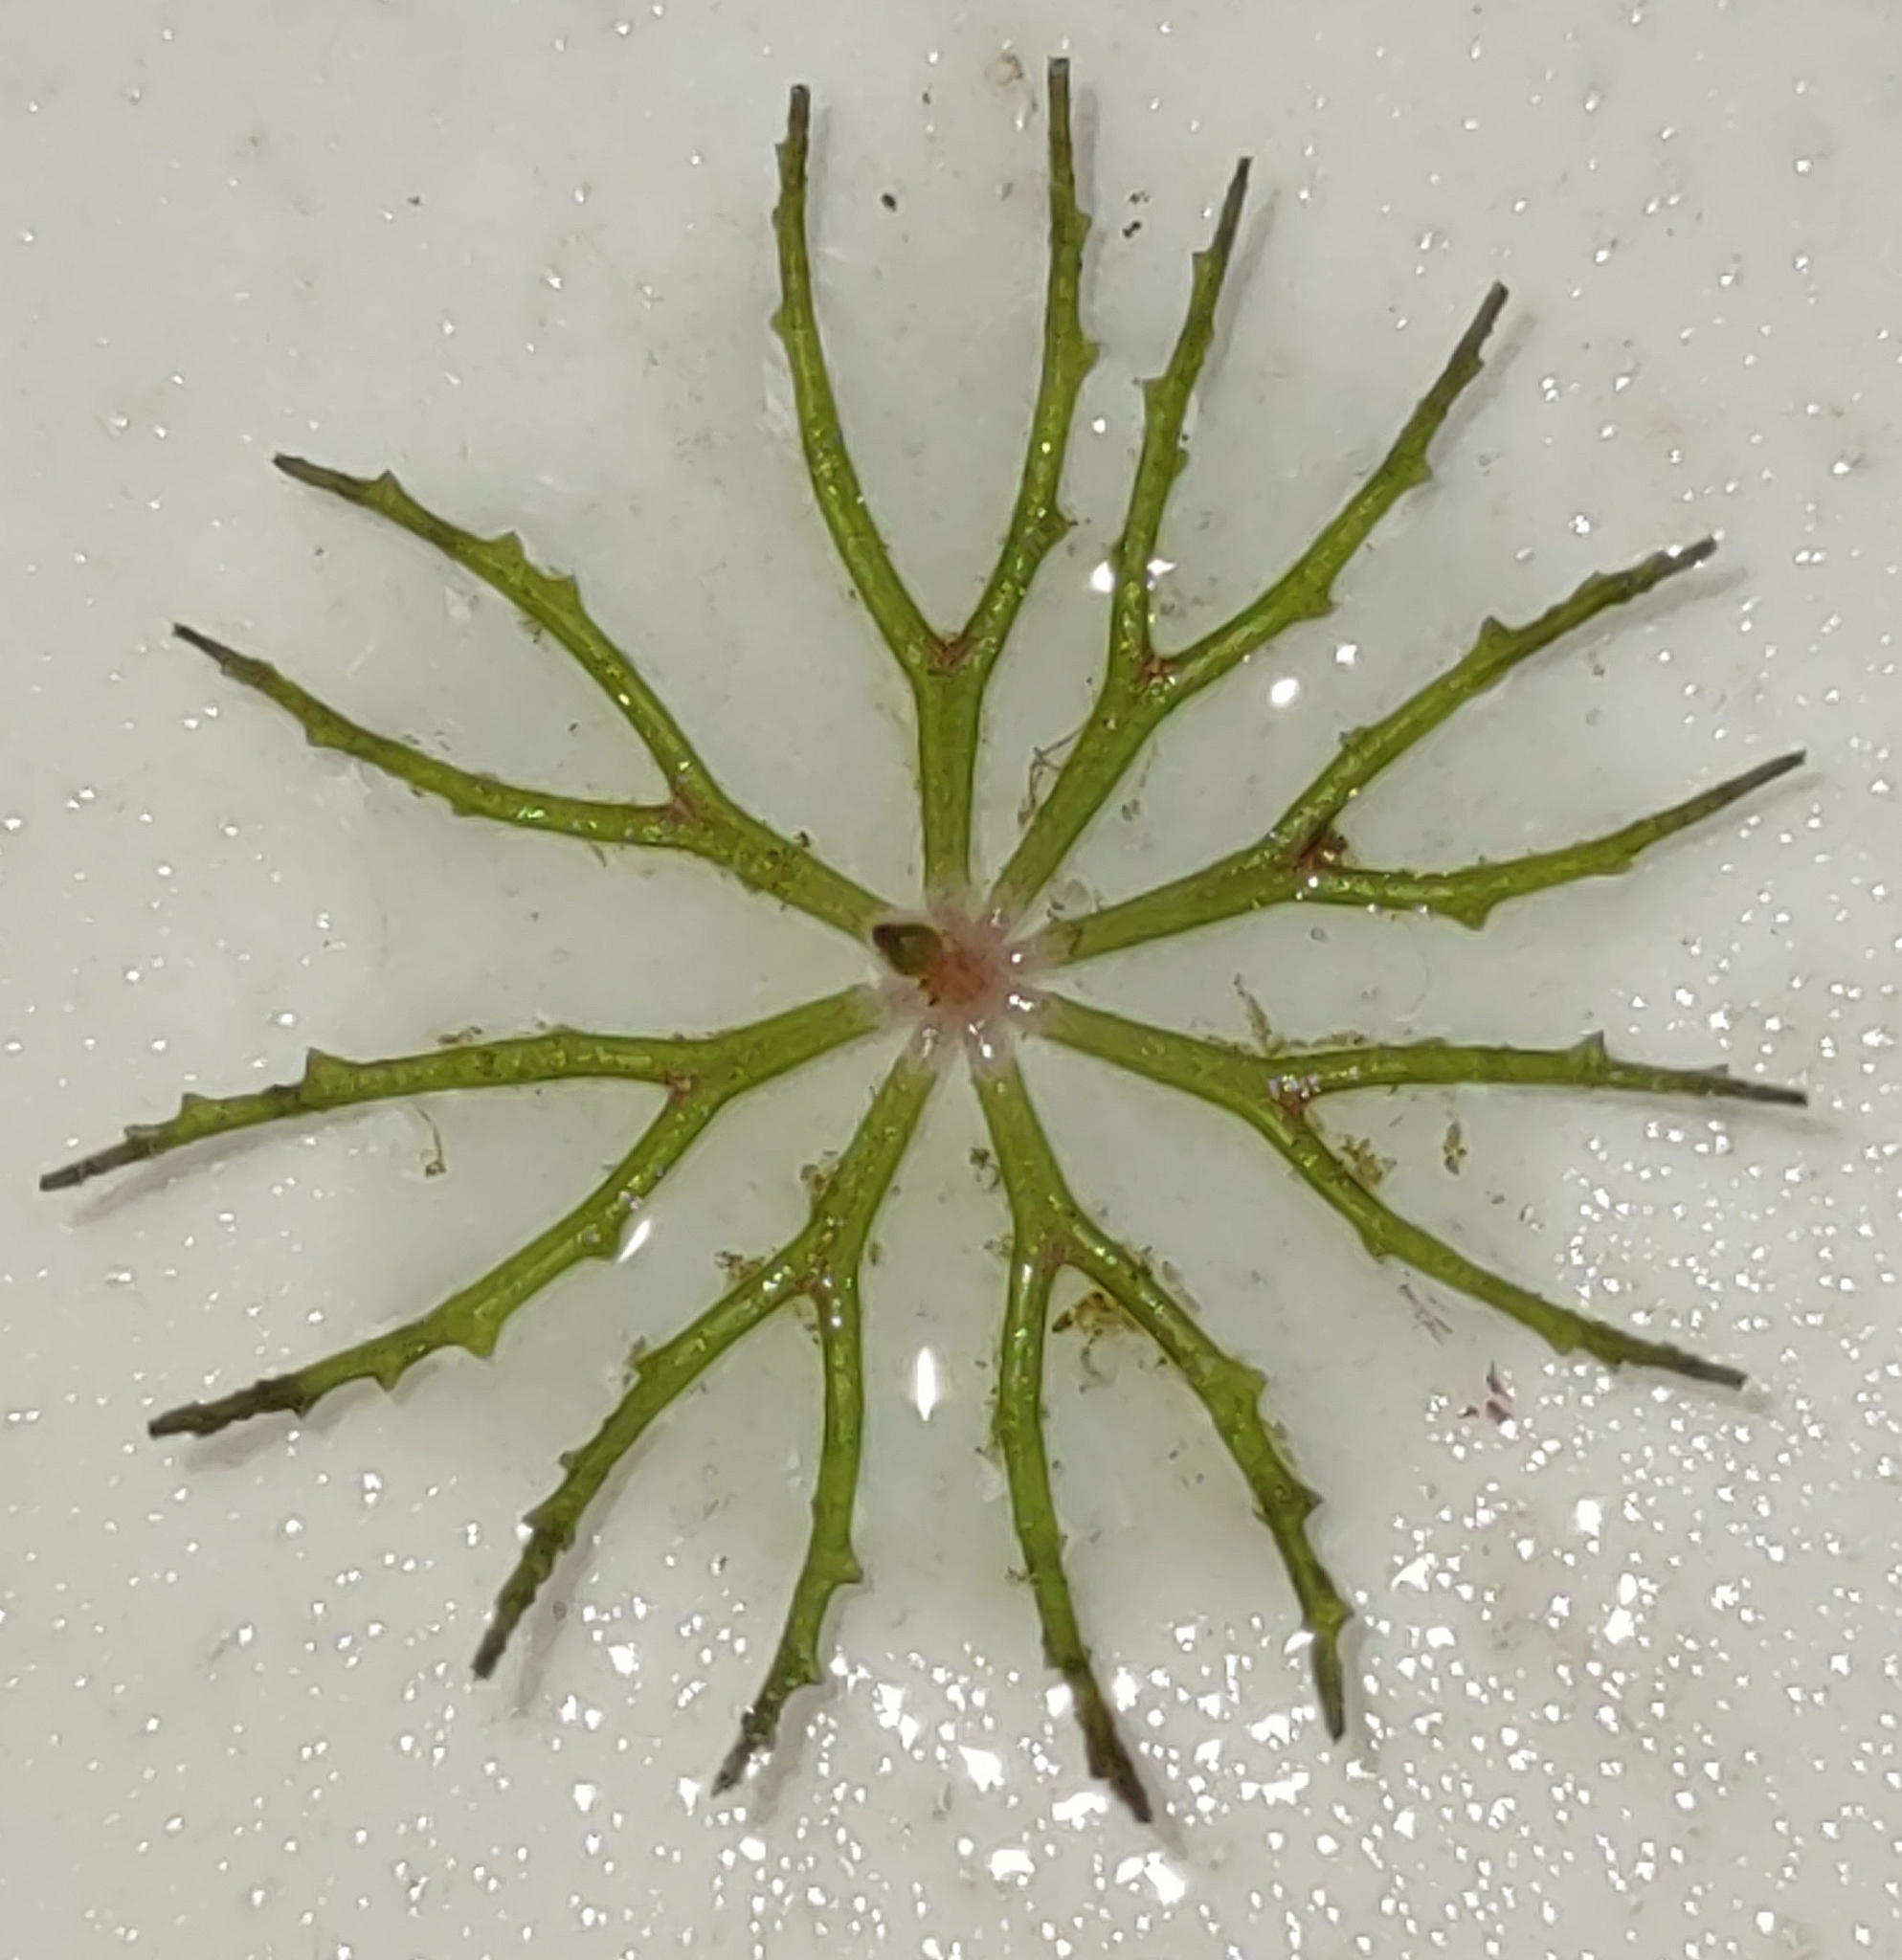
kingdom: Plantae
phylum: Tracheophyta
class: Magnoliopsida
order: Ceratophyllales
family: Ceratophyllaceae
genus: Ceratophyllum
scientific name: Ceratophyllum demersum
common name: Rigid hornwort
